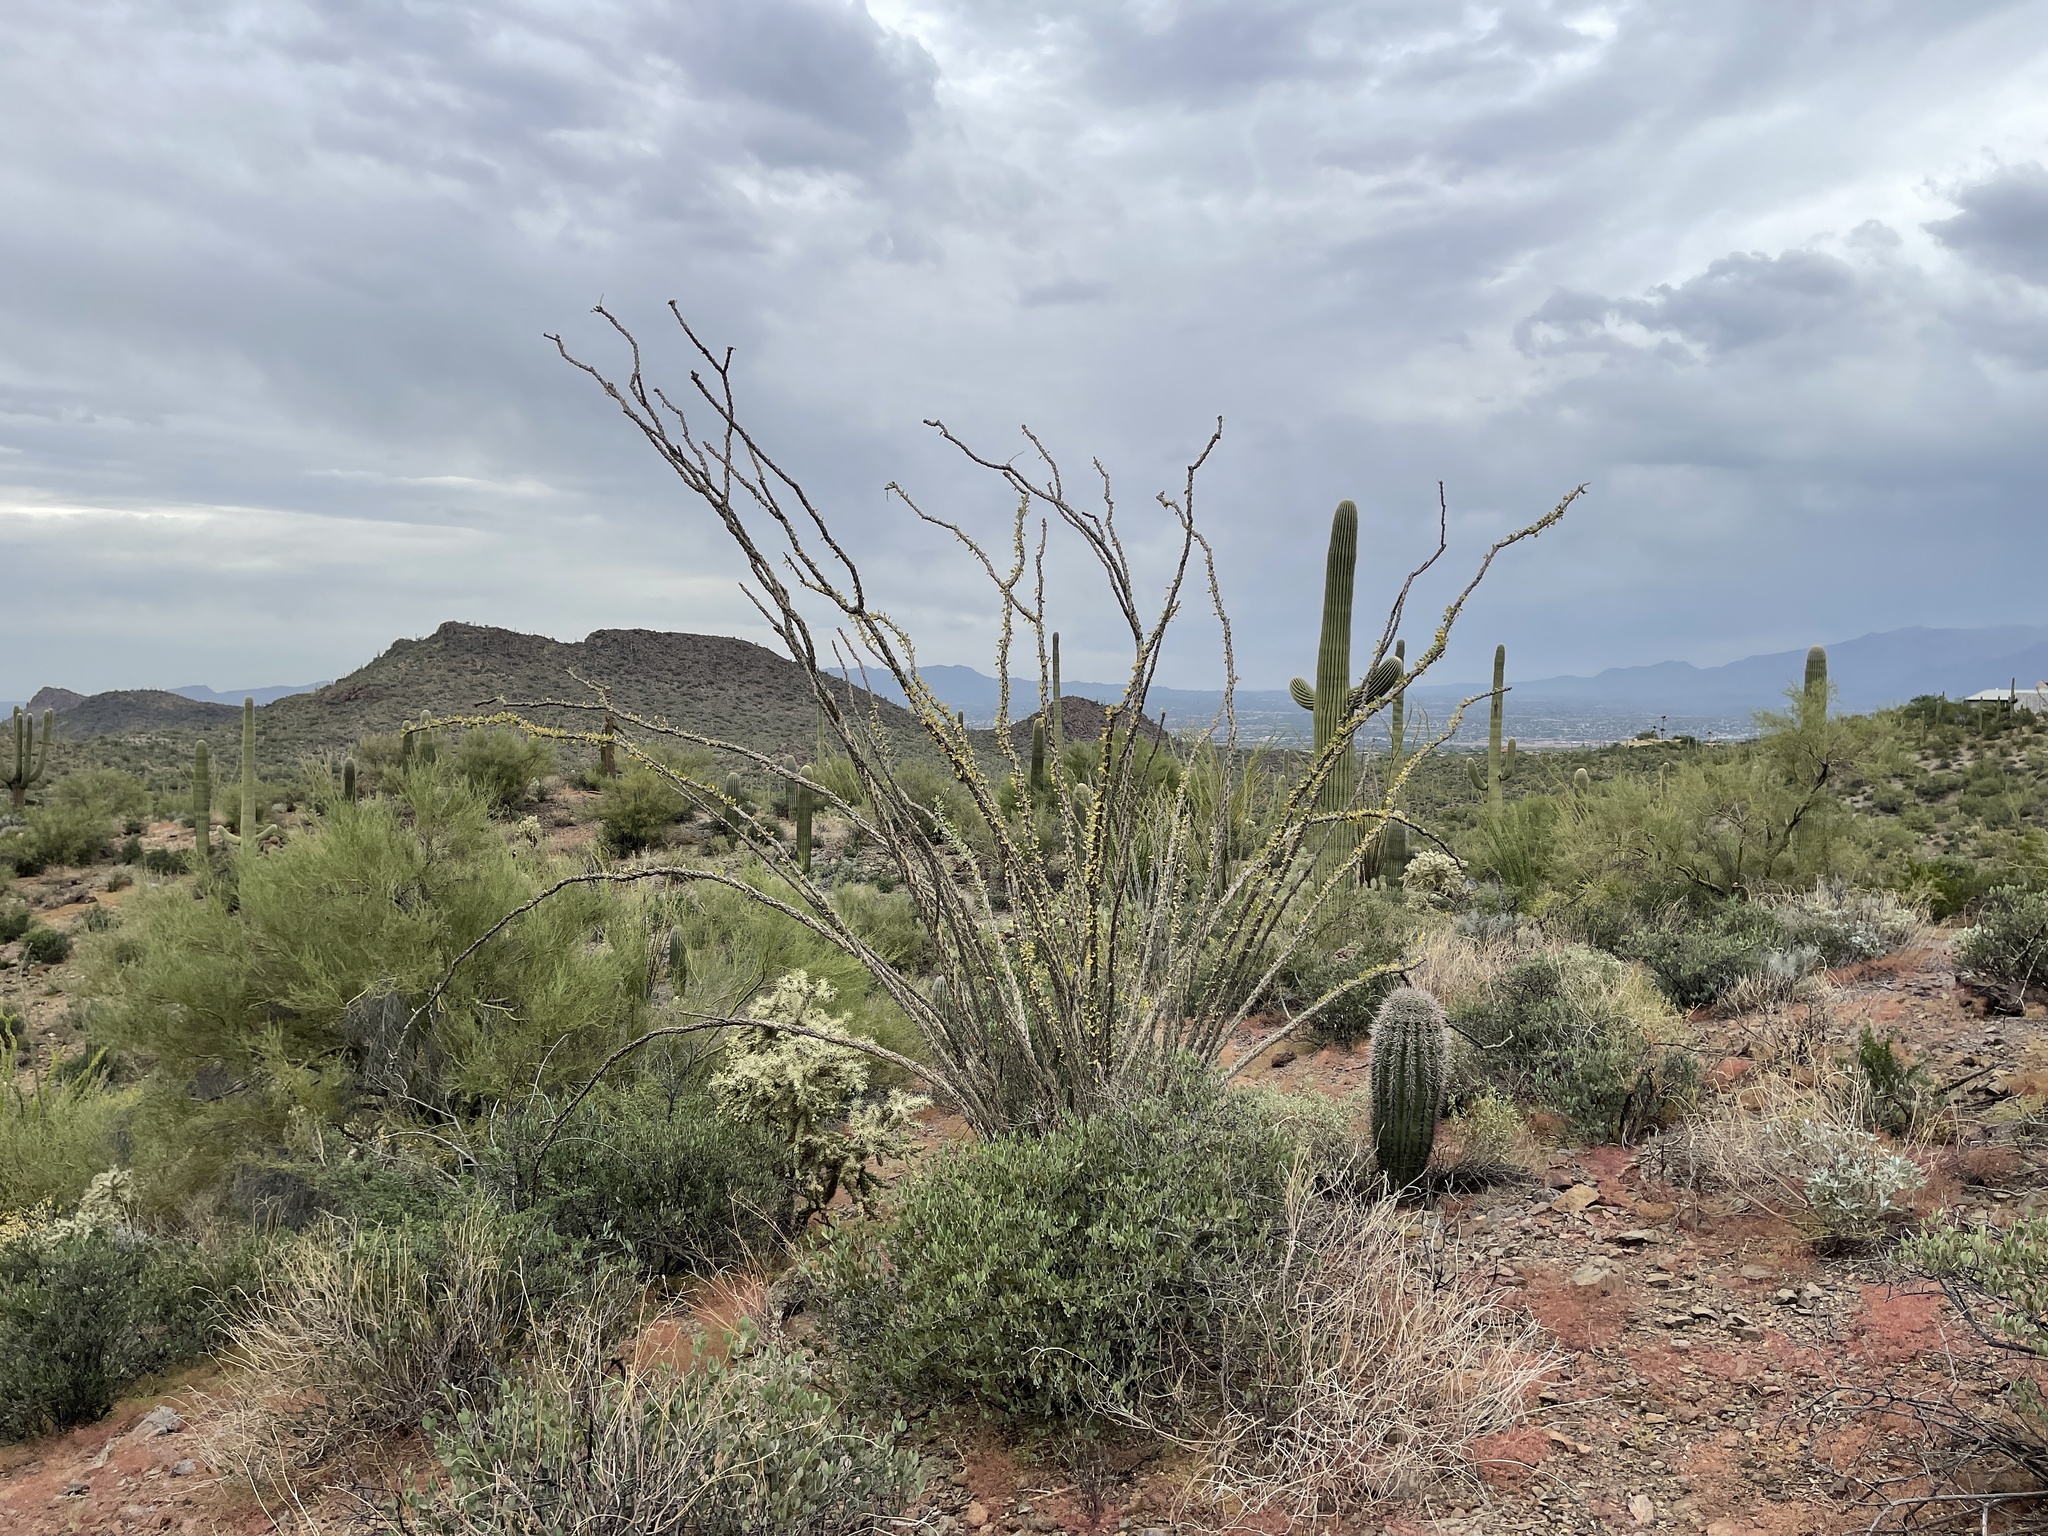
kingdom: Plantae
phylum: Tracheophyta
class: Magnoliopsida
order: Ericales
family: Fouquieriaceae
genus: Fouquieria
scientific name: Fouquieria splendens
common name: Vine-cactus
